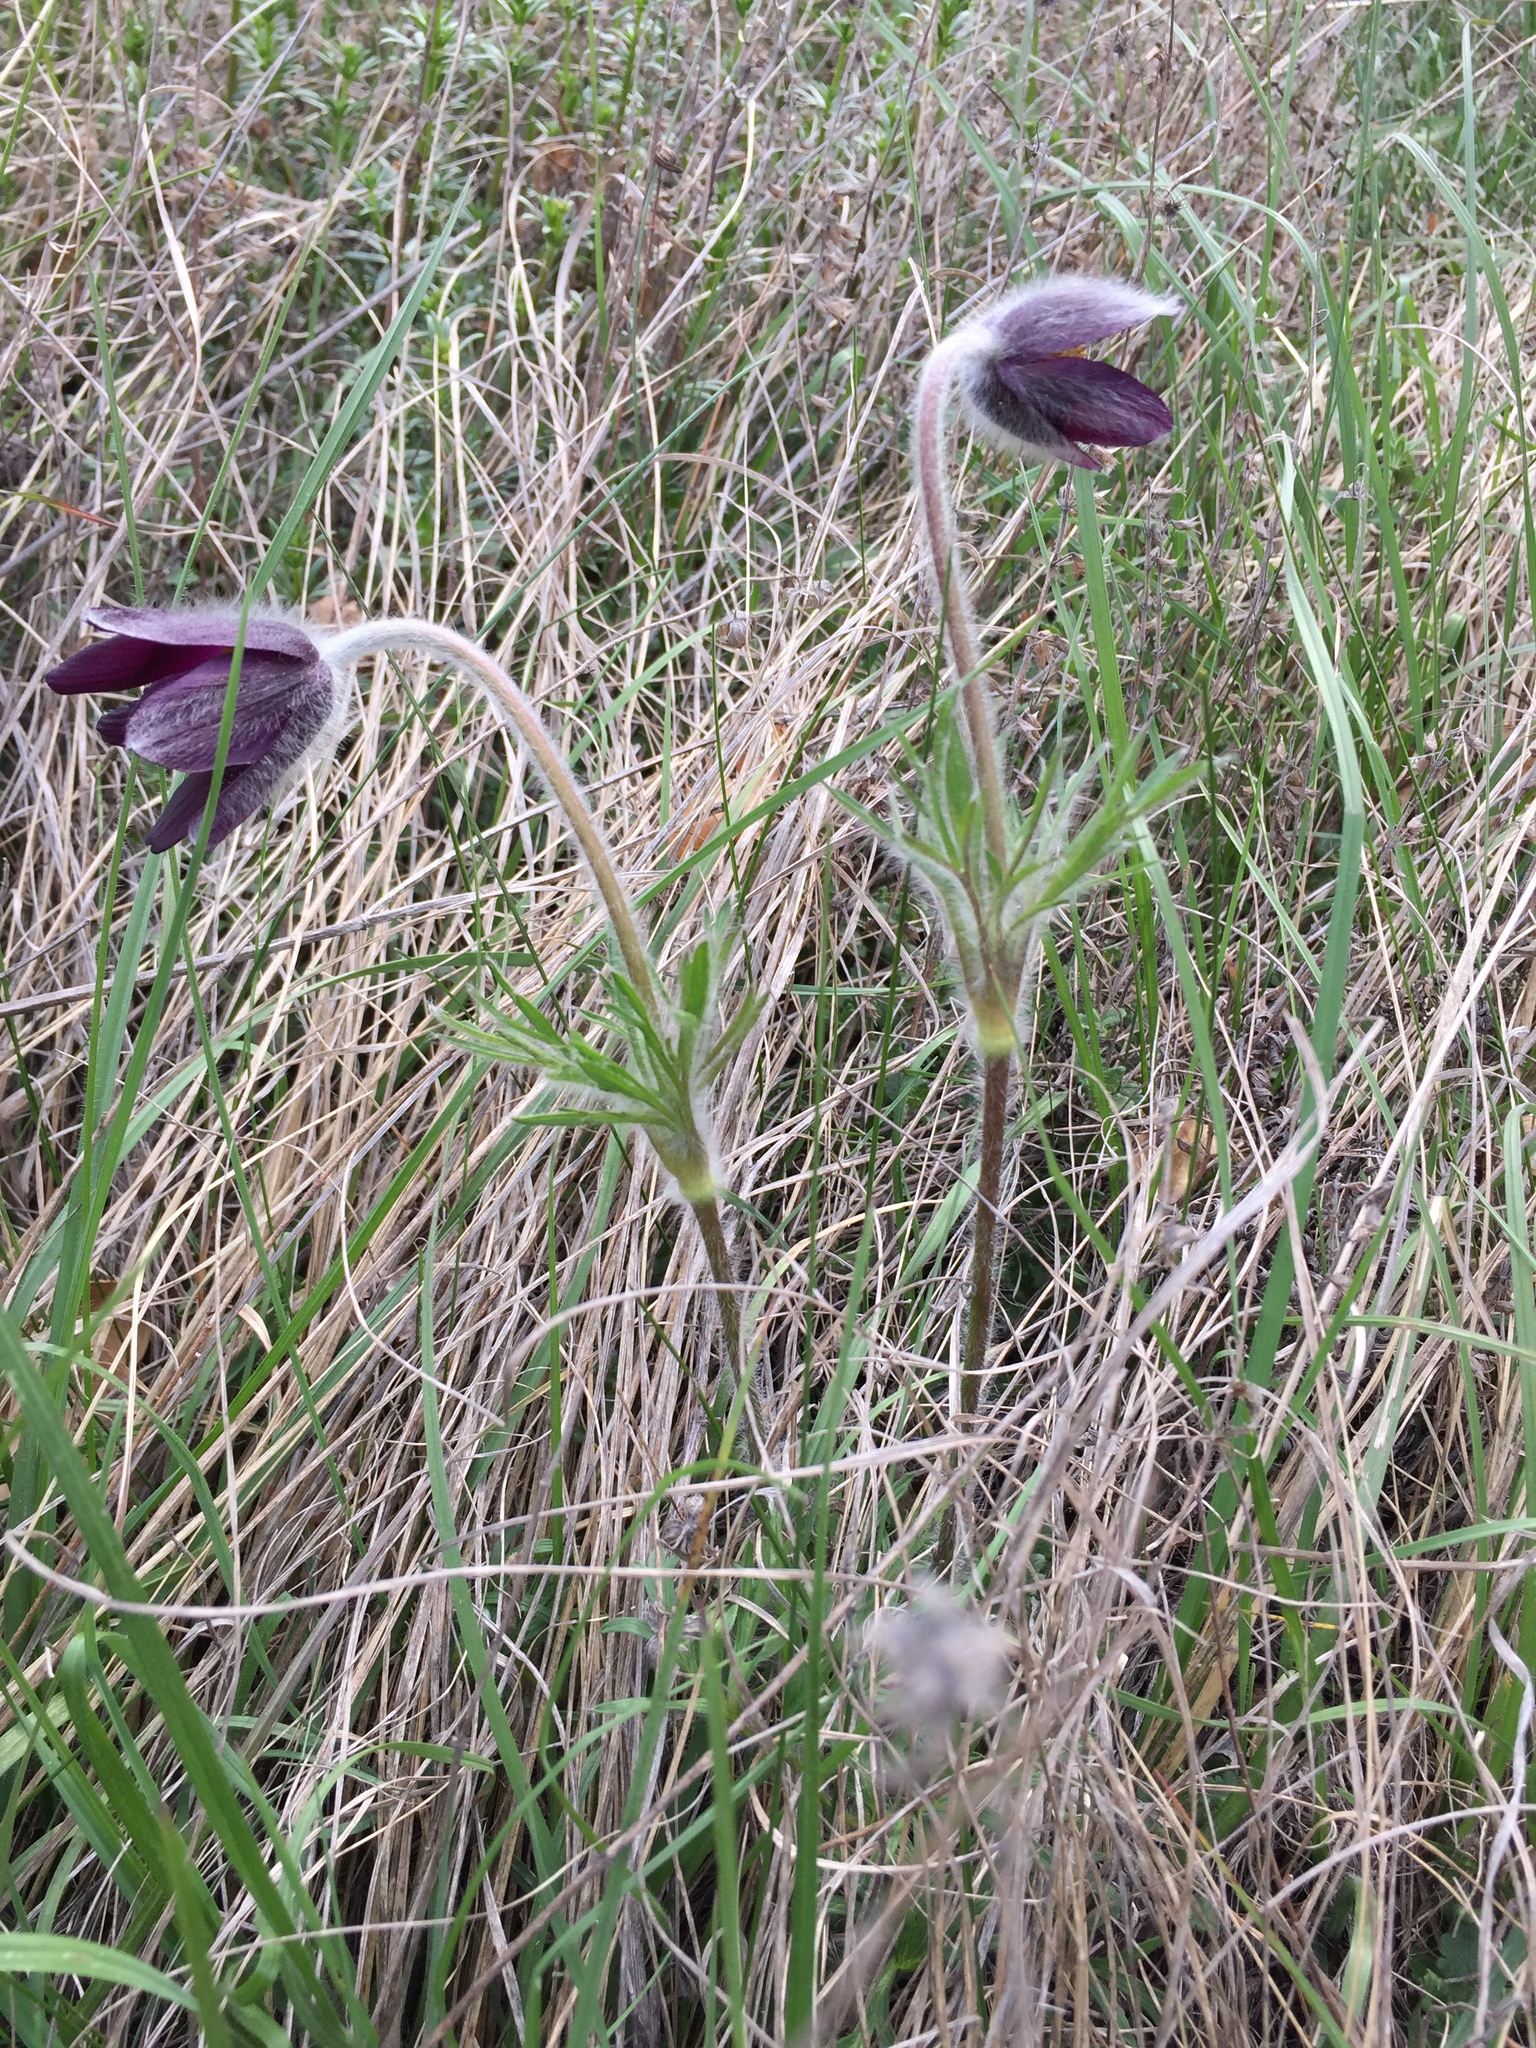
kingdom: Plantae
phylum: Tracheophyta
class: Magnoliopsida
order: Ranunculales
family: Ranunculaceae
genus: Pulsatilla
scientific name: Pulsatilla montana
